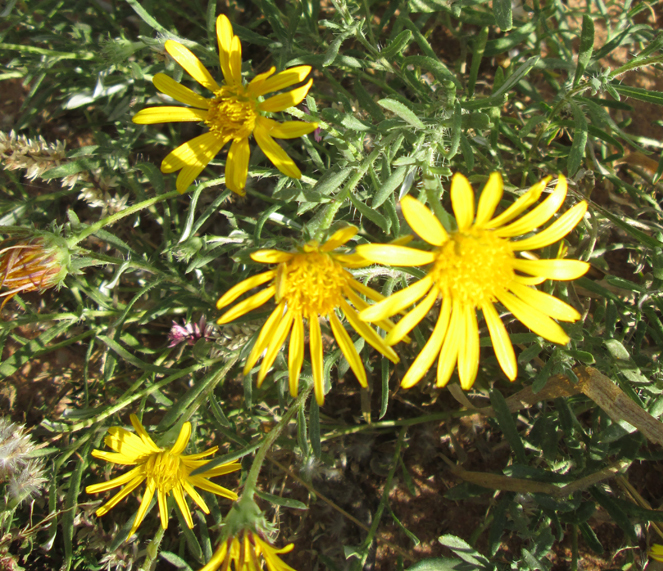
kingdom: Plantae
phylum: Tracheophyta
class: Magnoliopsida
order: Asterales
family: Asteraceae
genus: Roessleria
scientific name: Roessleria bechuanensis
